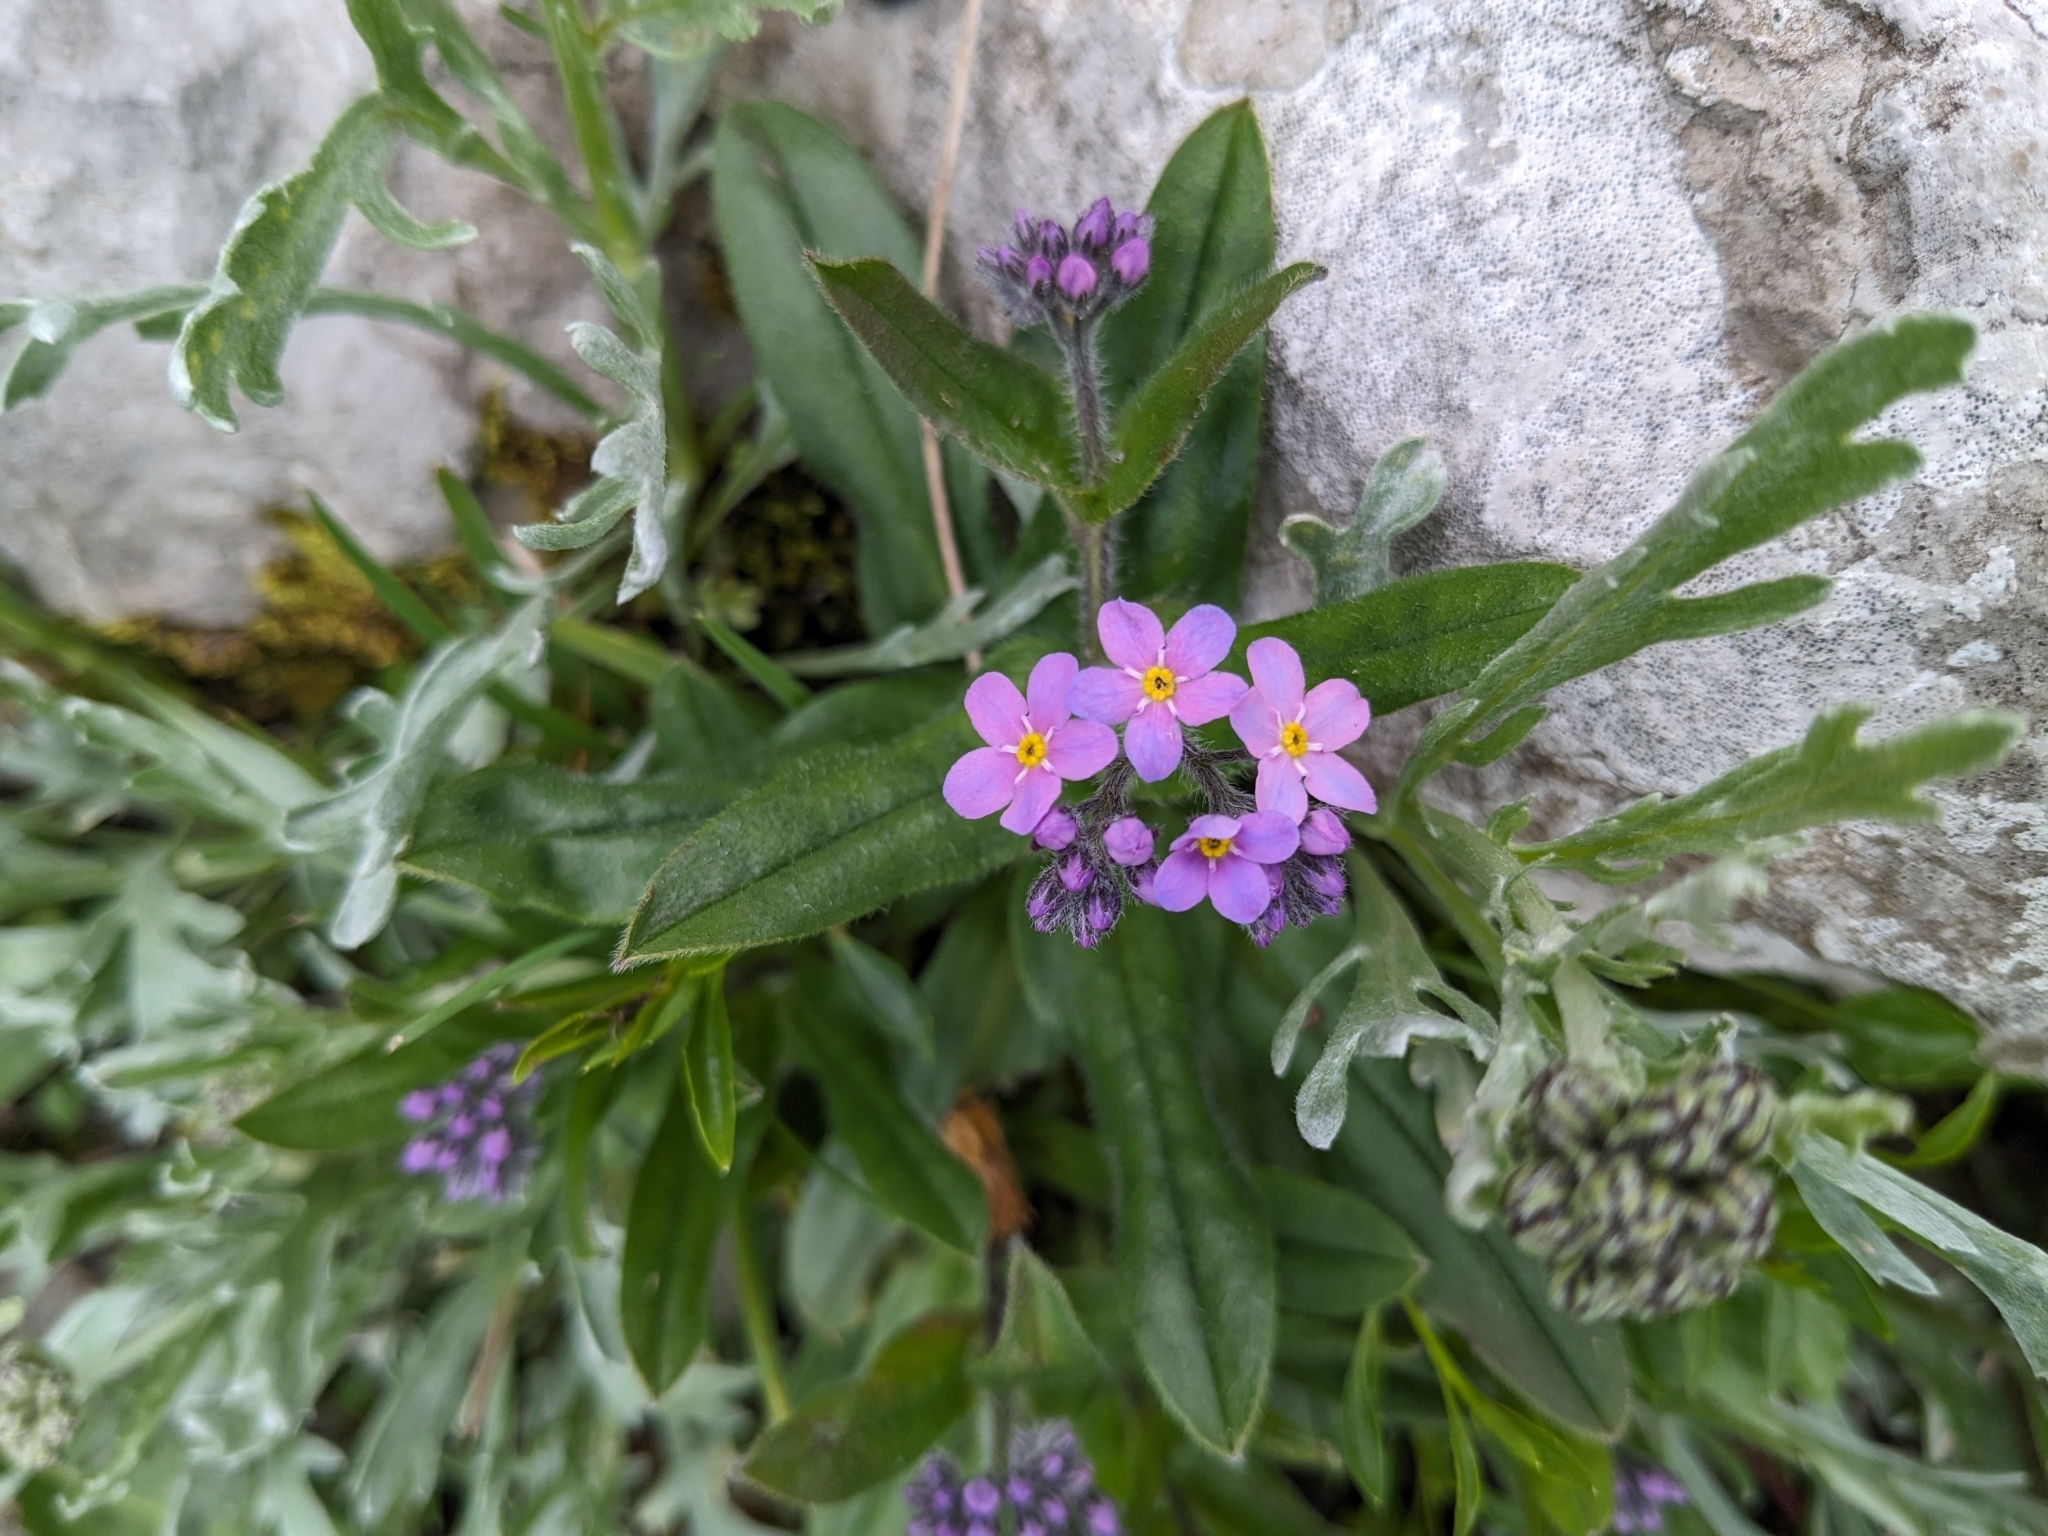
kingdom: Plantae
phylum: Tracheophyta
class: Magnoliopsida
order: Boraginales
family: Boraginaceae
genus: Myosotis
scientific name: Myosotis alpestris
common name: Alpine forget-me-not
